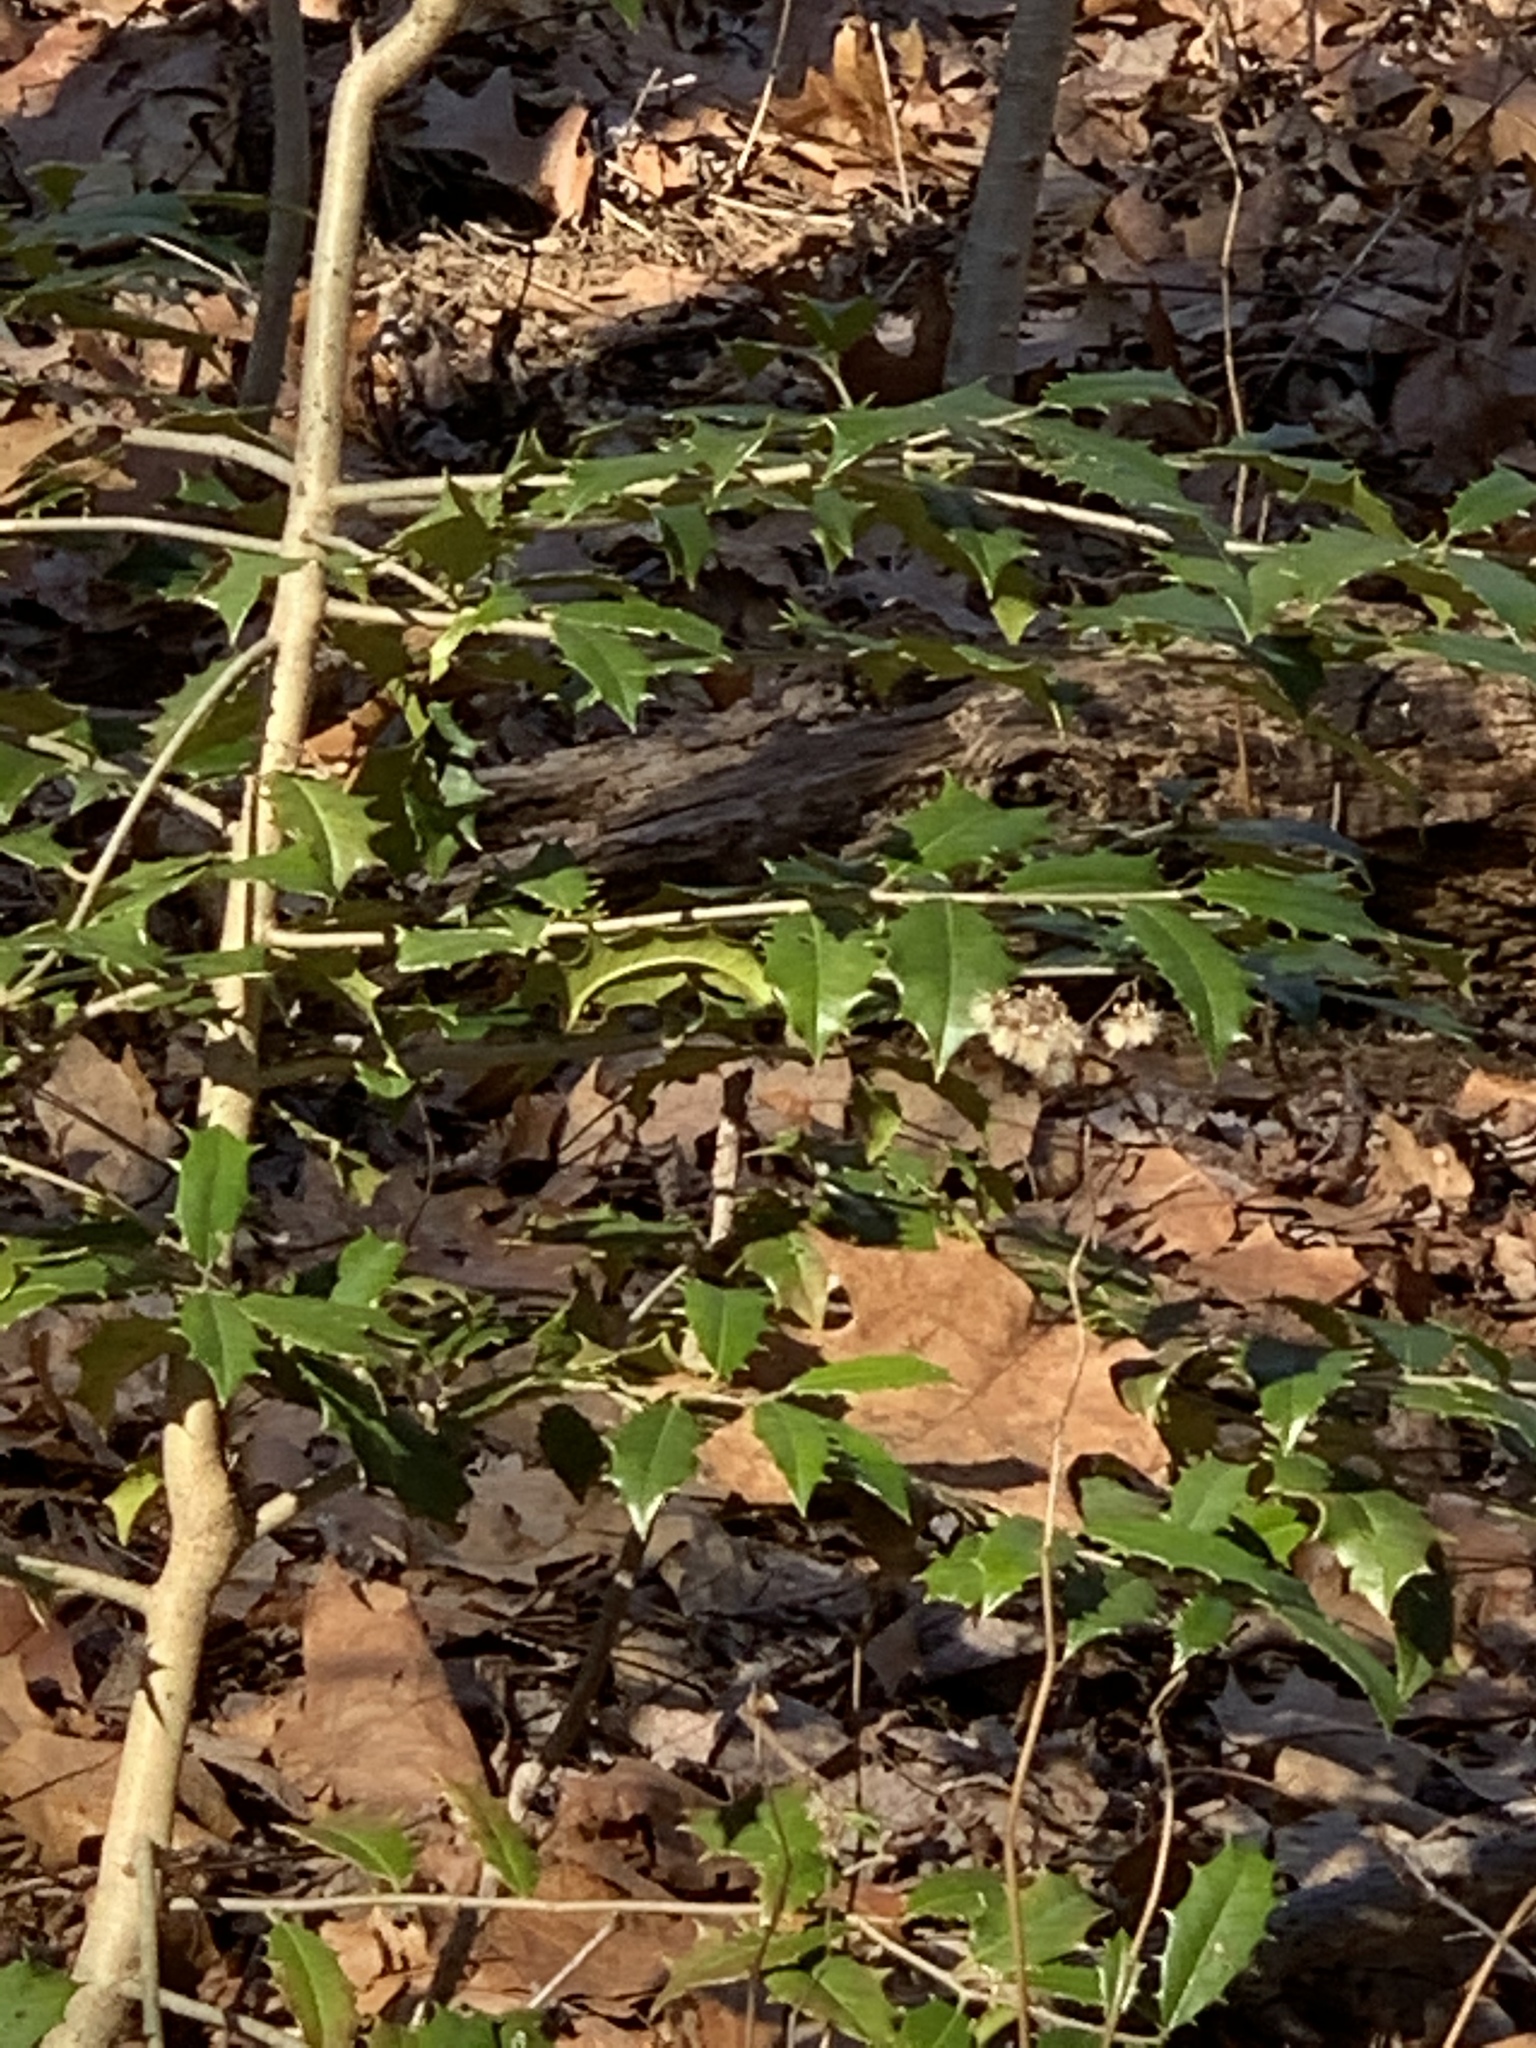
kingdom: Plantae
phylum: Tracheophyta
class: Magnoliopsida
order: Aquifoliales
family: Aquifoliaceae
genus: Ilex
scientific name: Ilex opaca
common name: American holly
